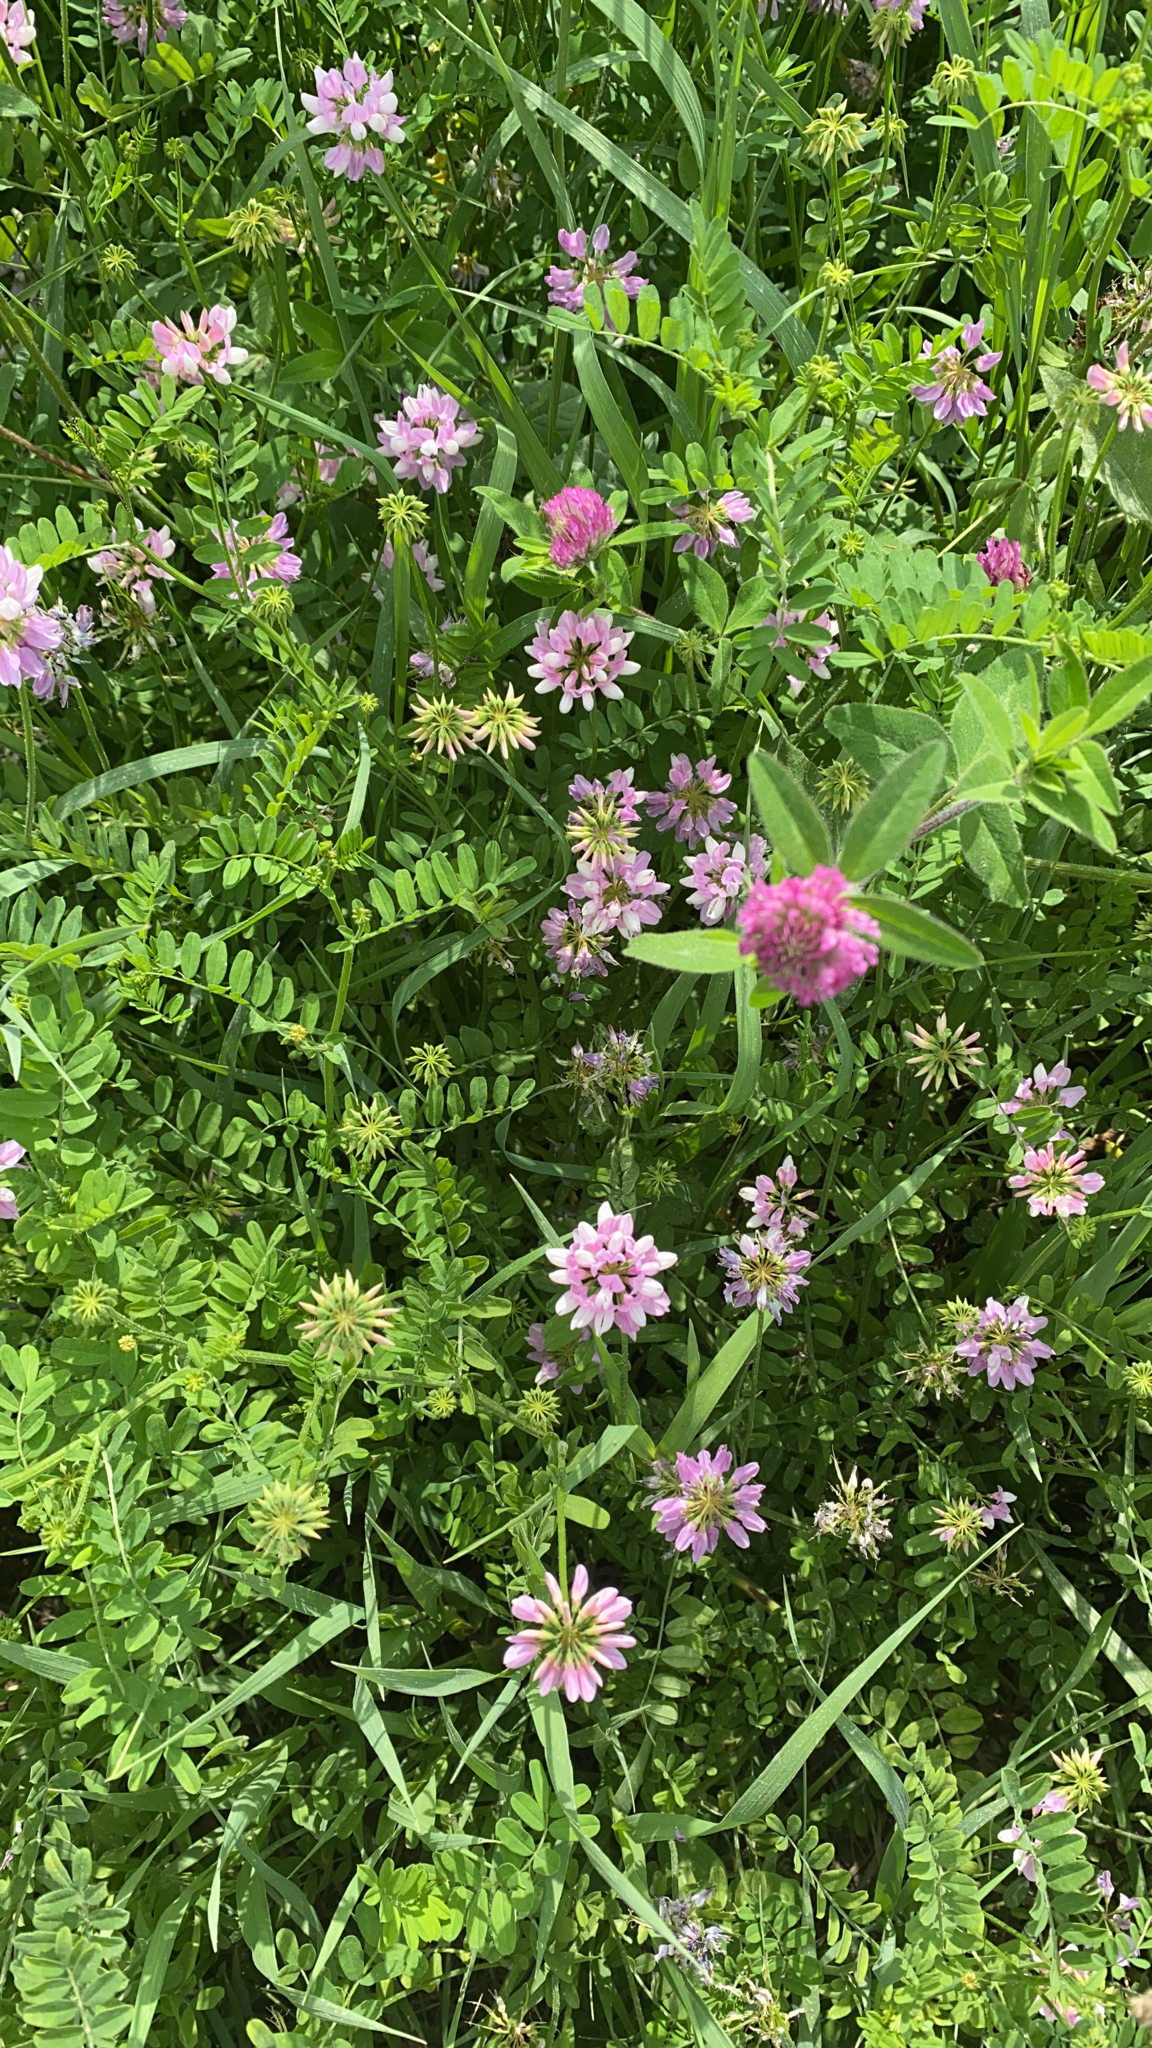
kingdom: Plantae
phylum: Tracheophyta
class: Magnoliopsida
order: Fabales
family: Fabaceae
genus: Coronilla
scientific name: Coronilla varia
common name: Crownvetch
